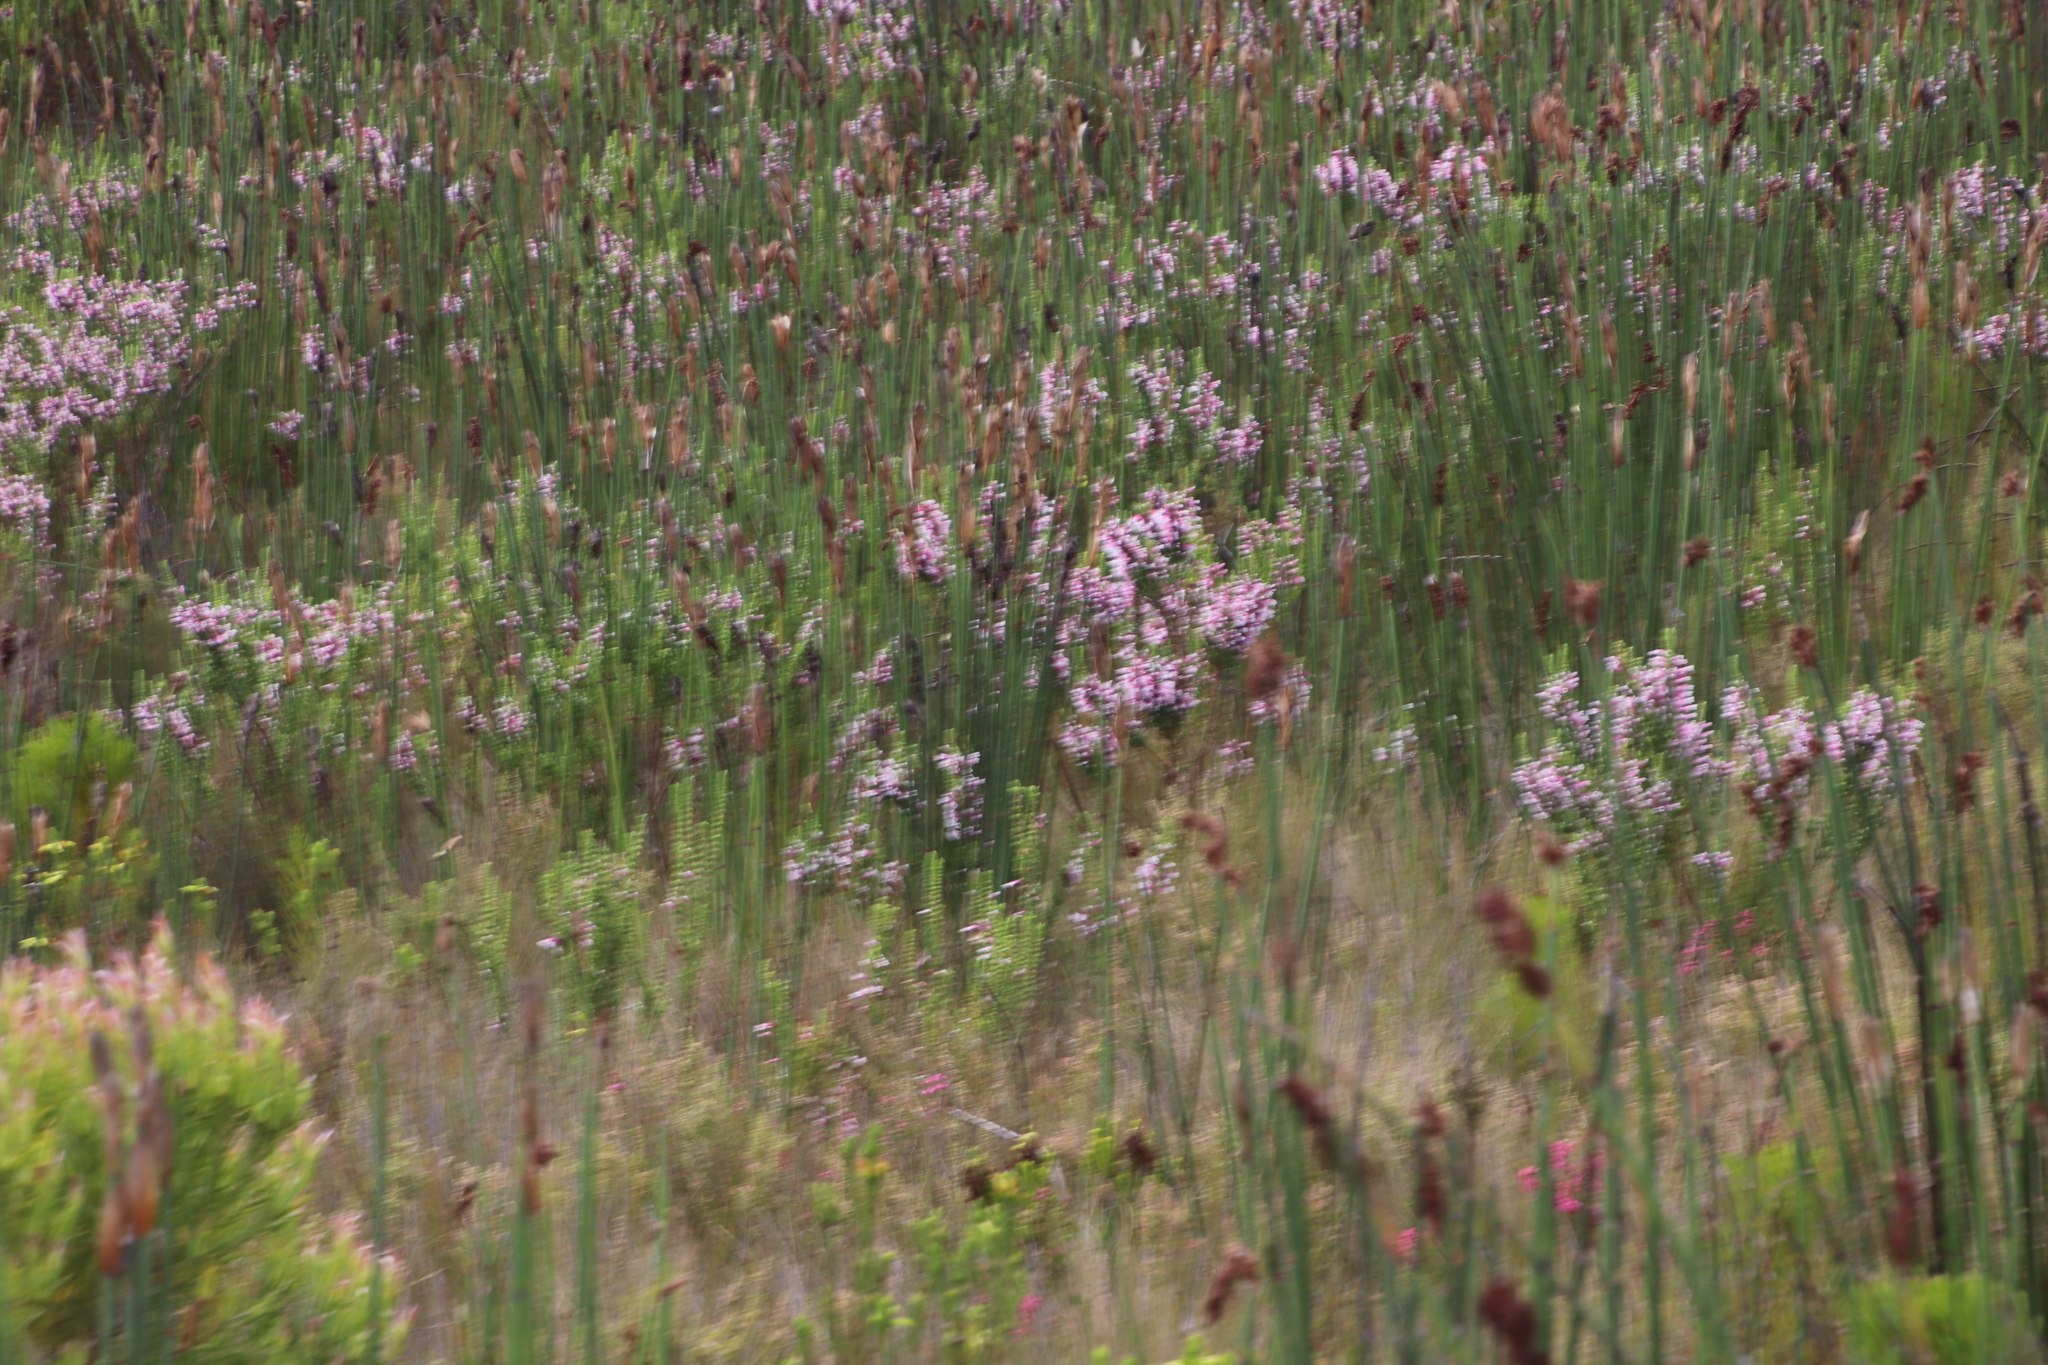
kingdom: Plantae
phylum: Tracheophyta
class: Magnoliopsida
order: Ericales
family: Ericaceae
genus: Erica
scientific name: Erica macowanii
